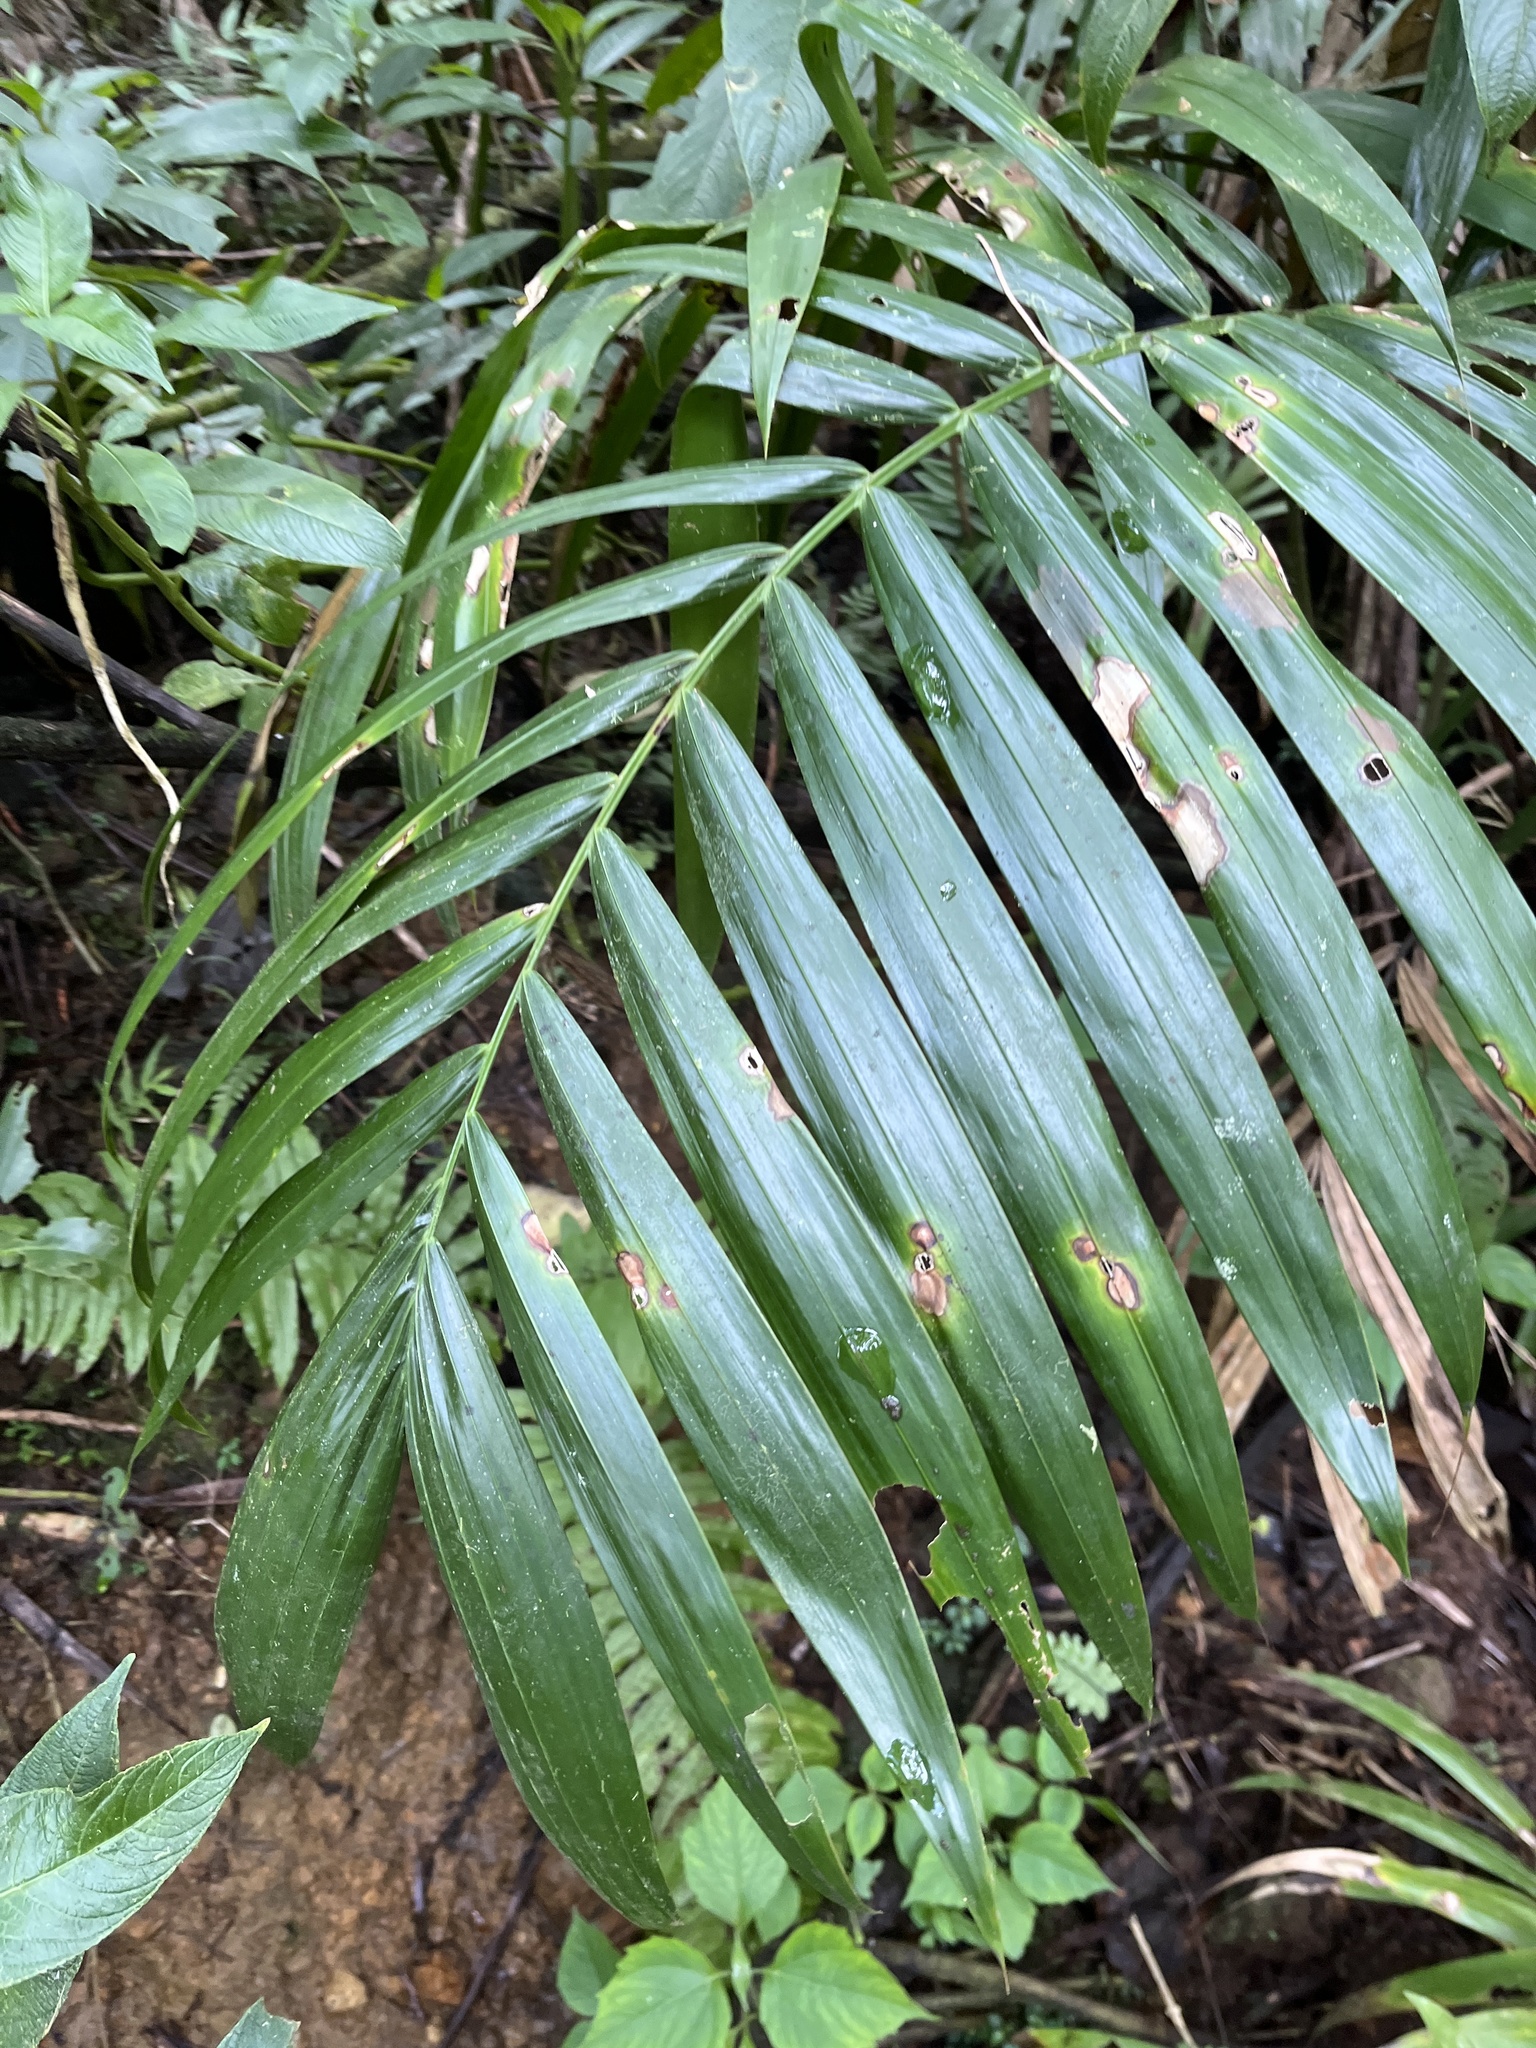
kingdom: Plantae
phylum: Tracheophyta
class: Liliopsida
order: Arecales
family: Arecaceae
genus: Prestoea
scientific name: Prestoea acuminata
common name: Sierran palm
